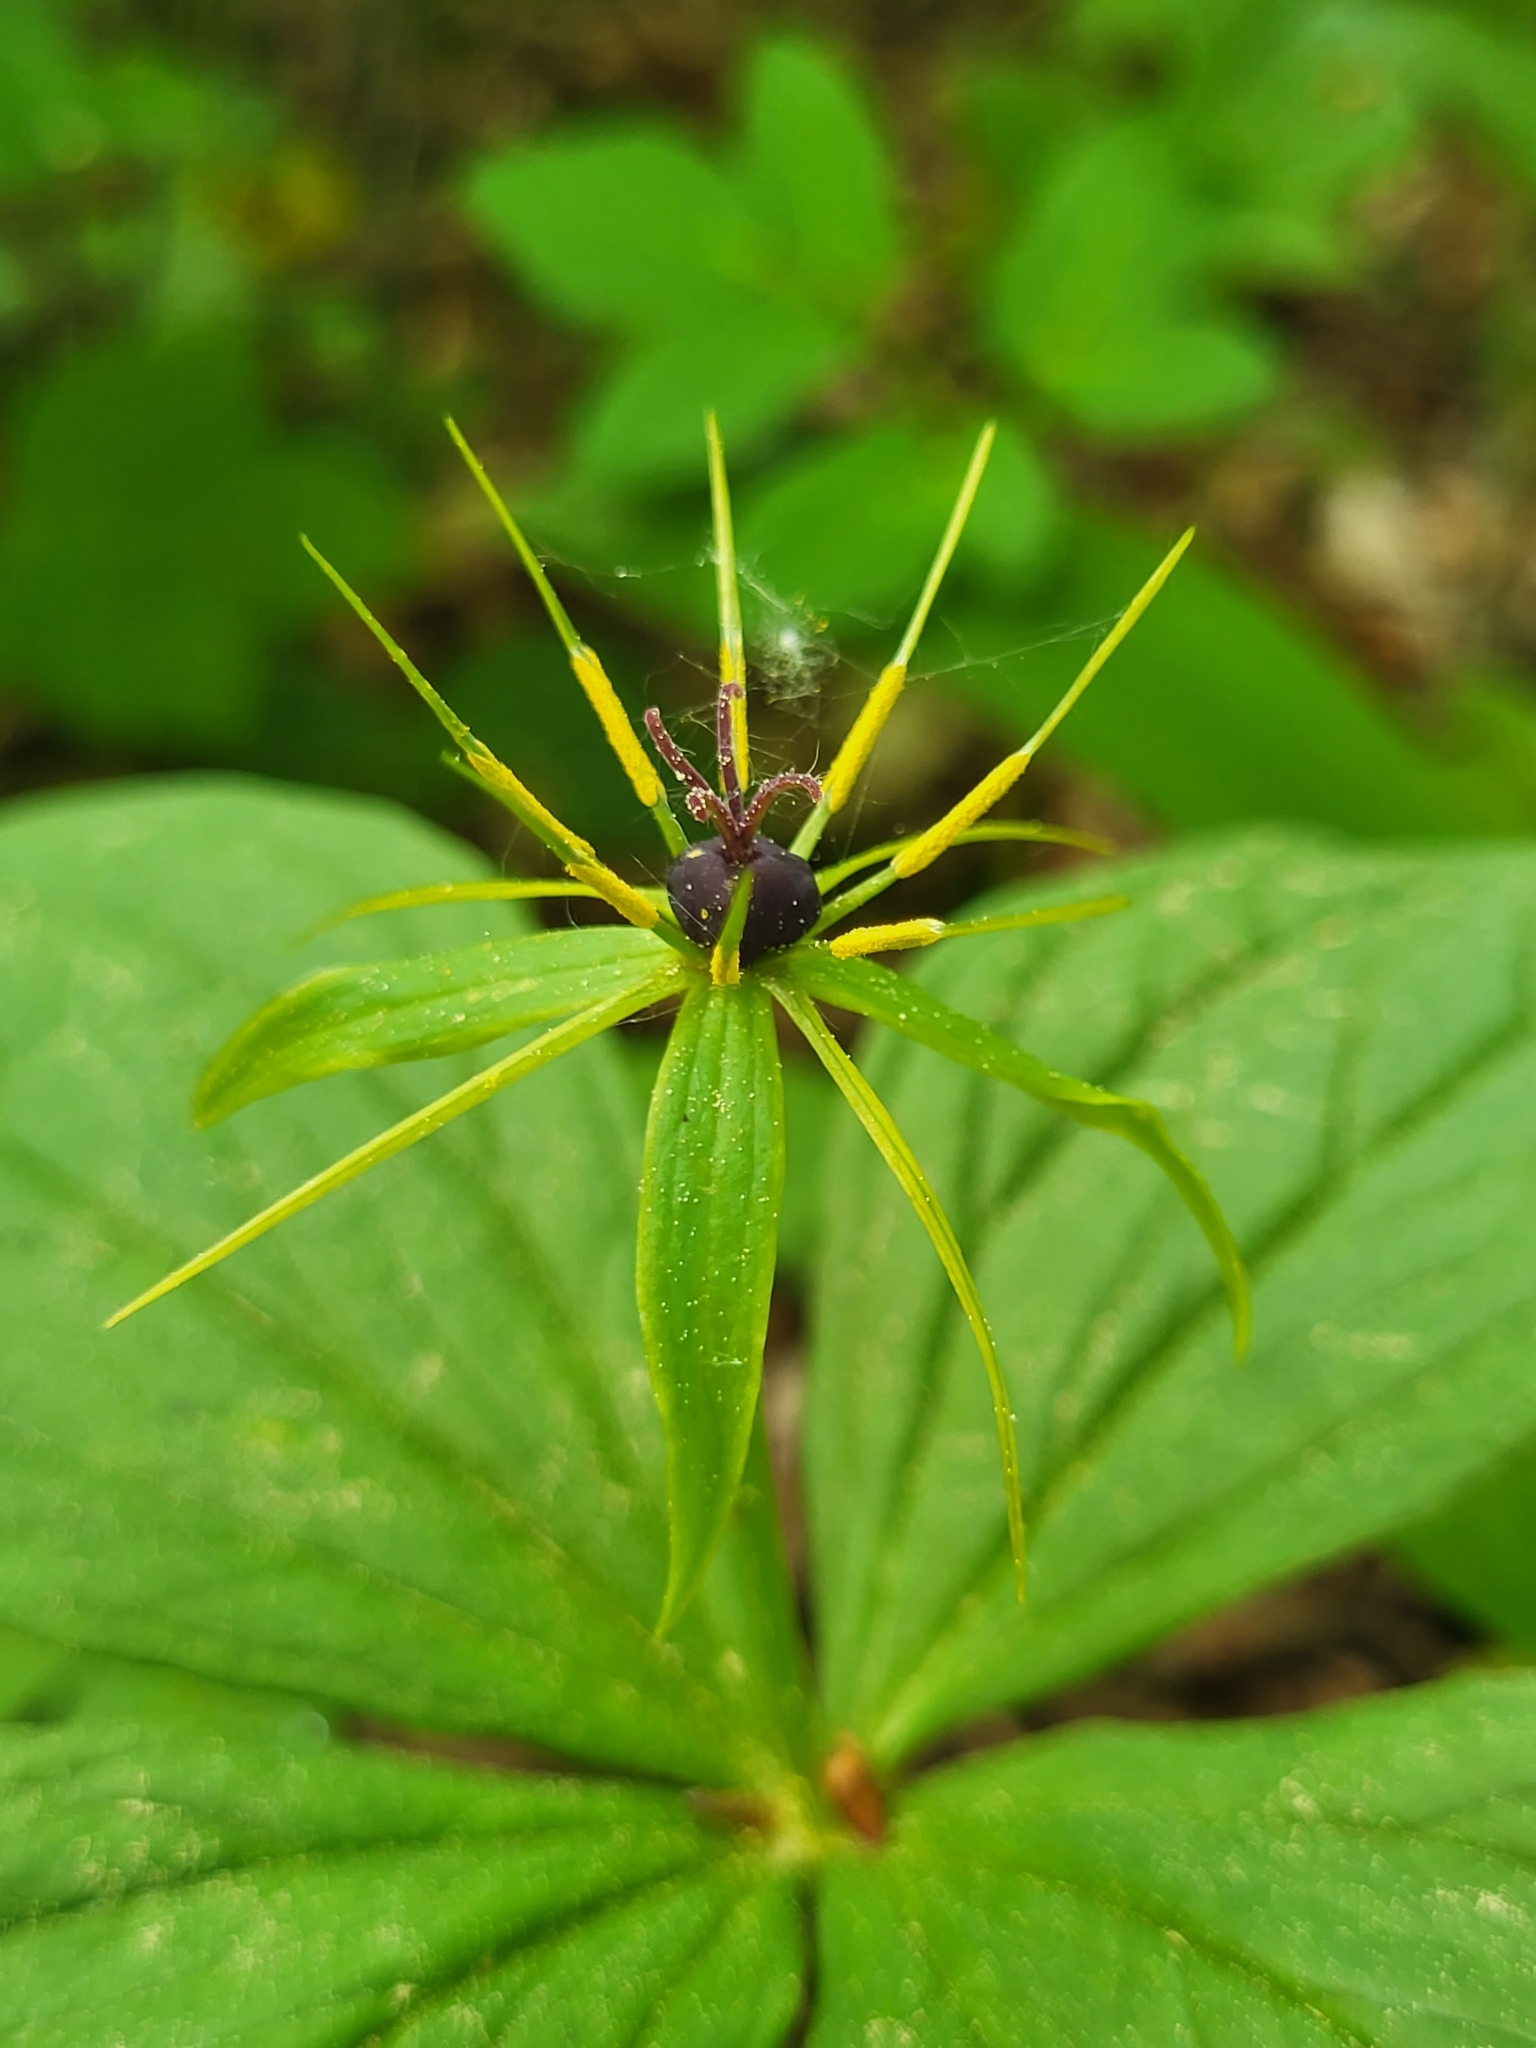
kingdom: Plantae
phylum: Tracheophyta
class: Liliopsida
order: Liliales
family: Melanthiaceae
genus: Paris
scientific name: Paris quadrifolia
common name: Herb-paris
